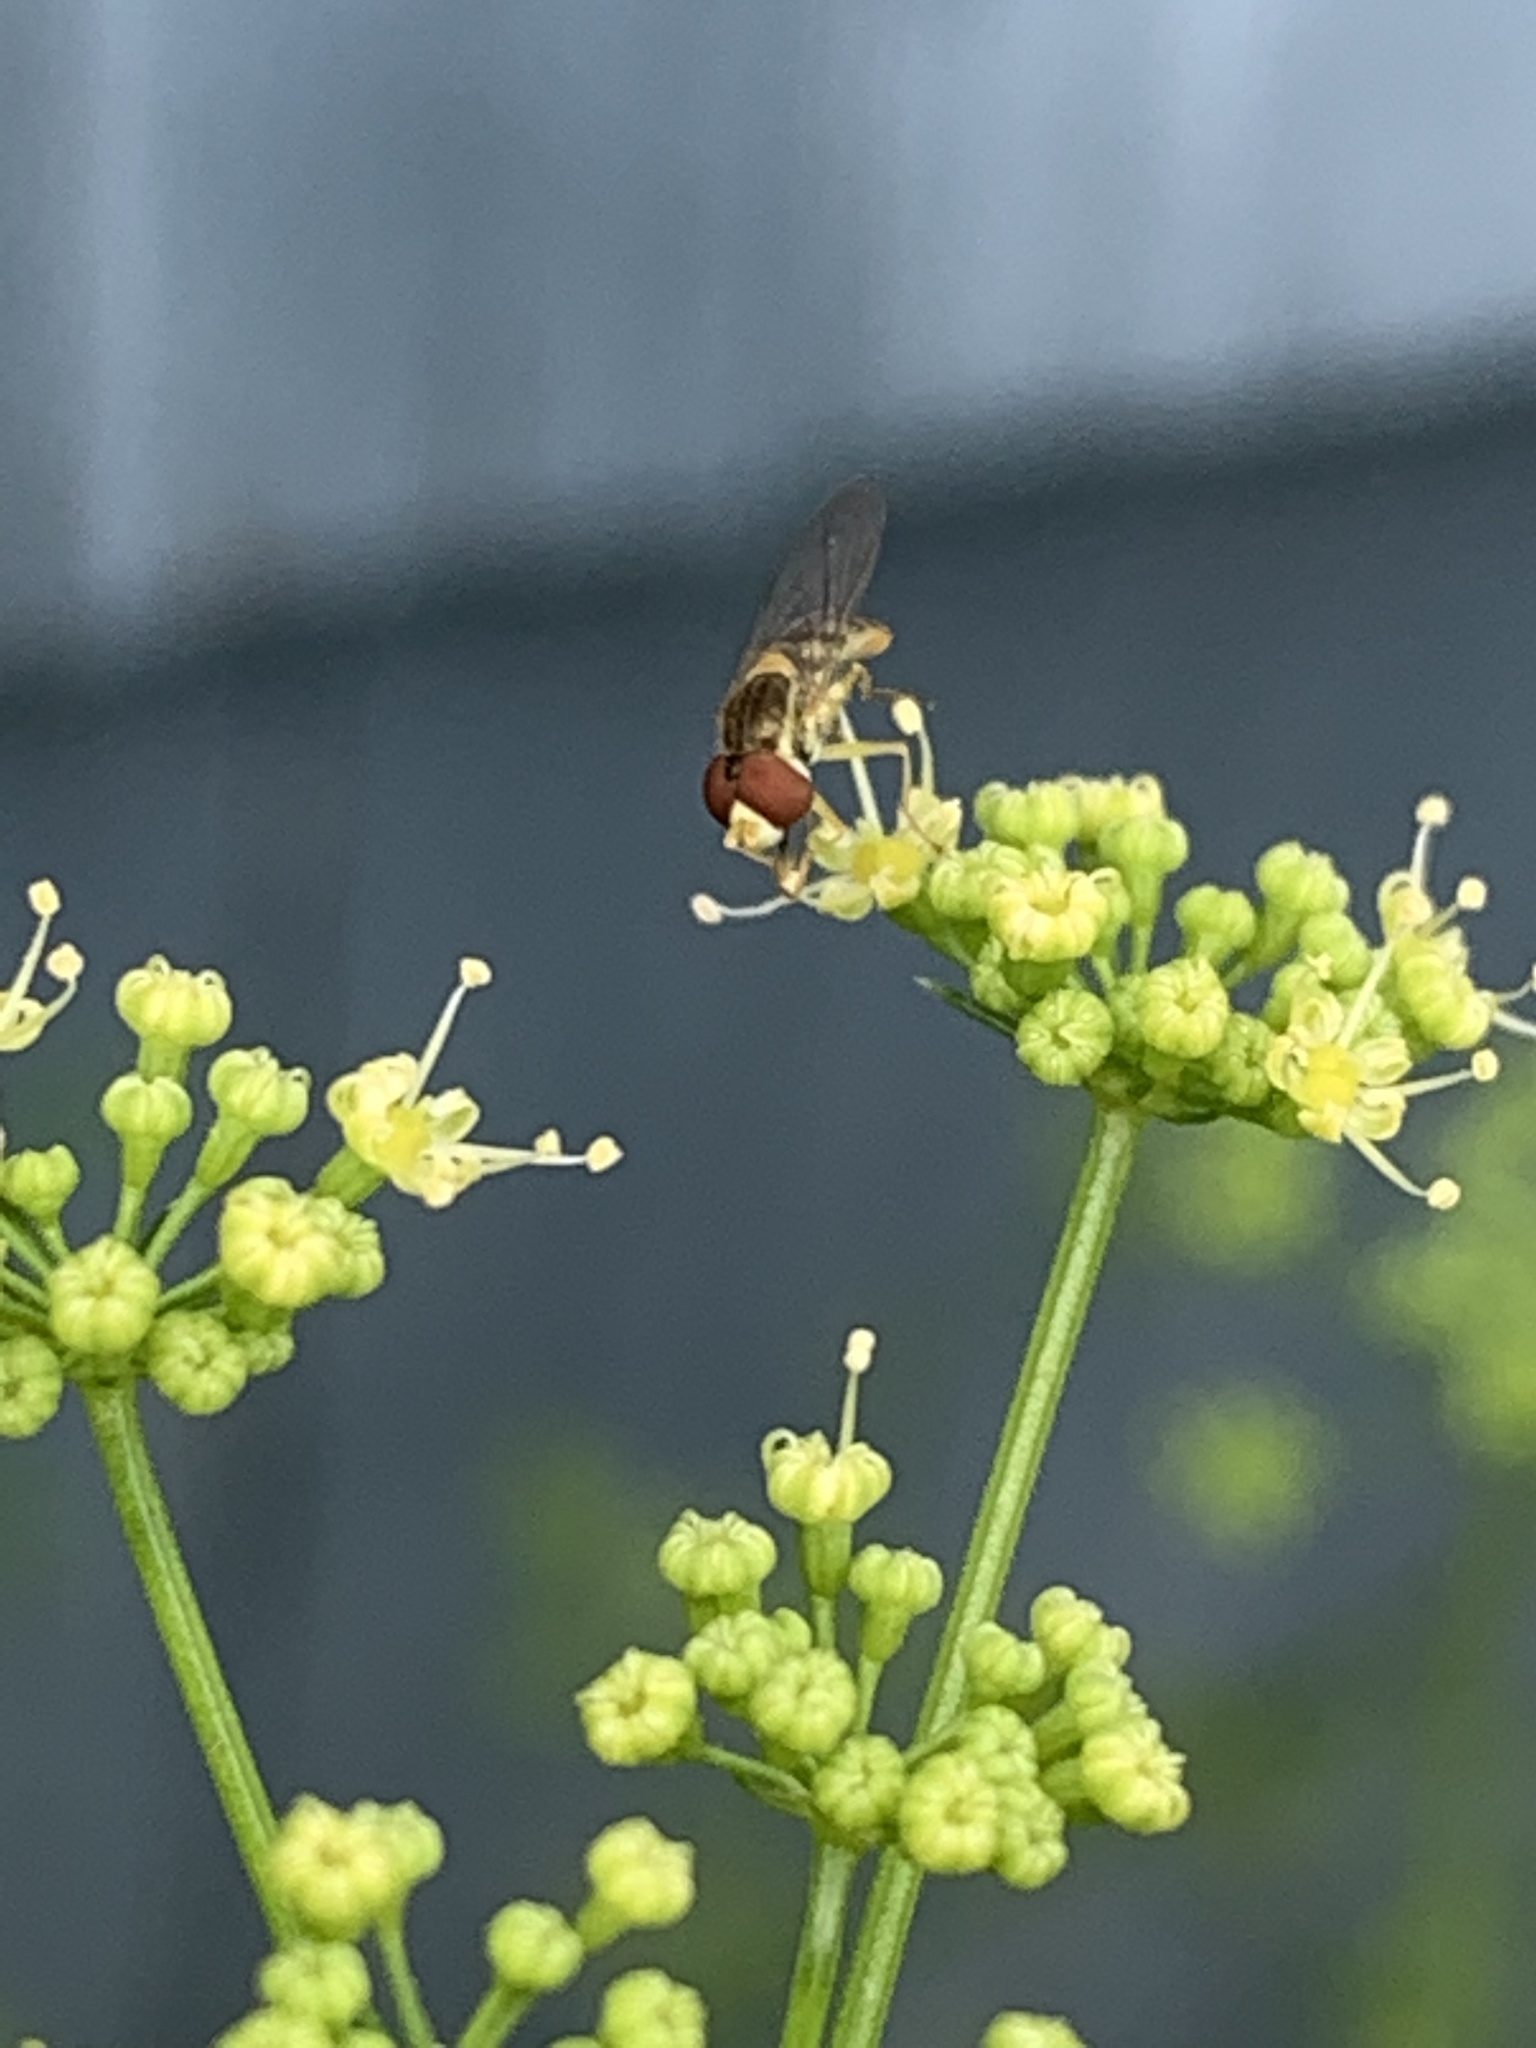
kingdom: Animalia
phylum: Arthropoda
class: Insecta
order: Diptera
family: Syrphidae
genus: Toxomerus
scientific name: Toxomerus marginatus
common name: Syrphid fly
